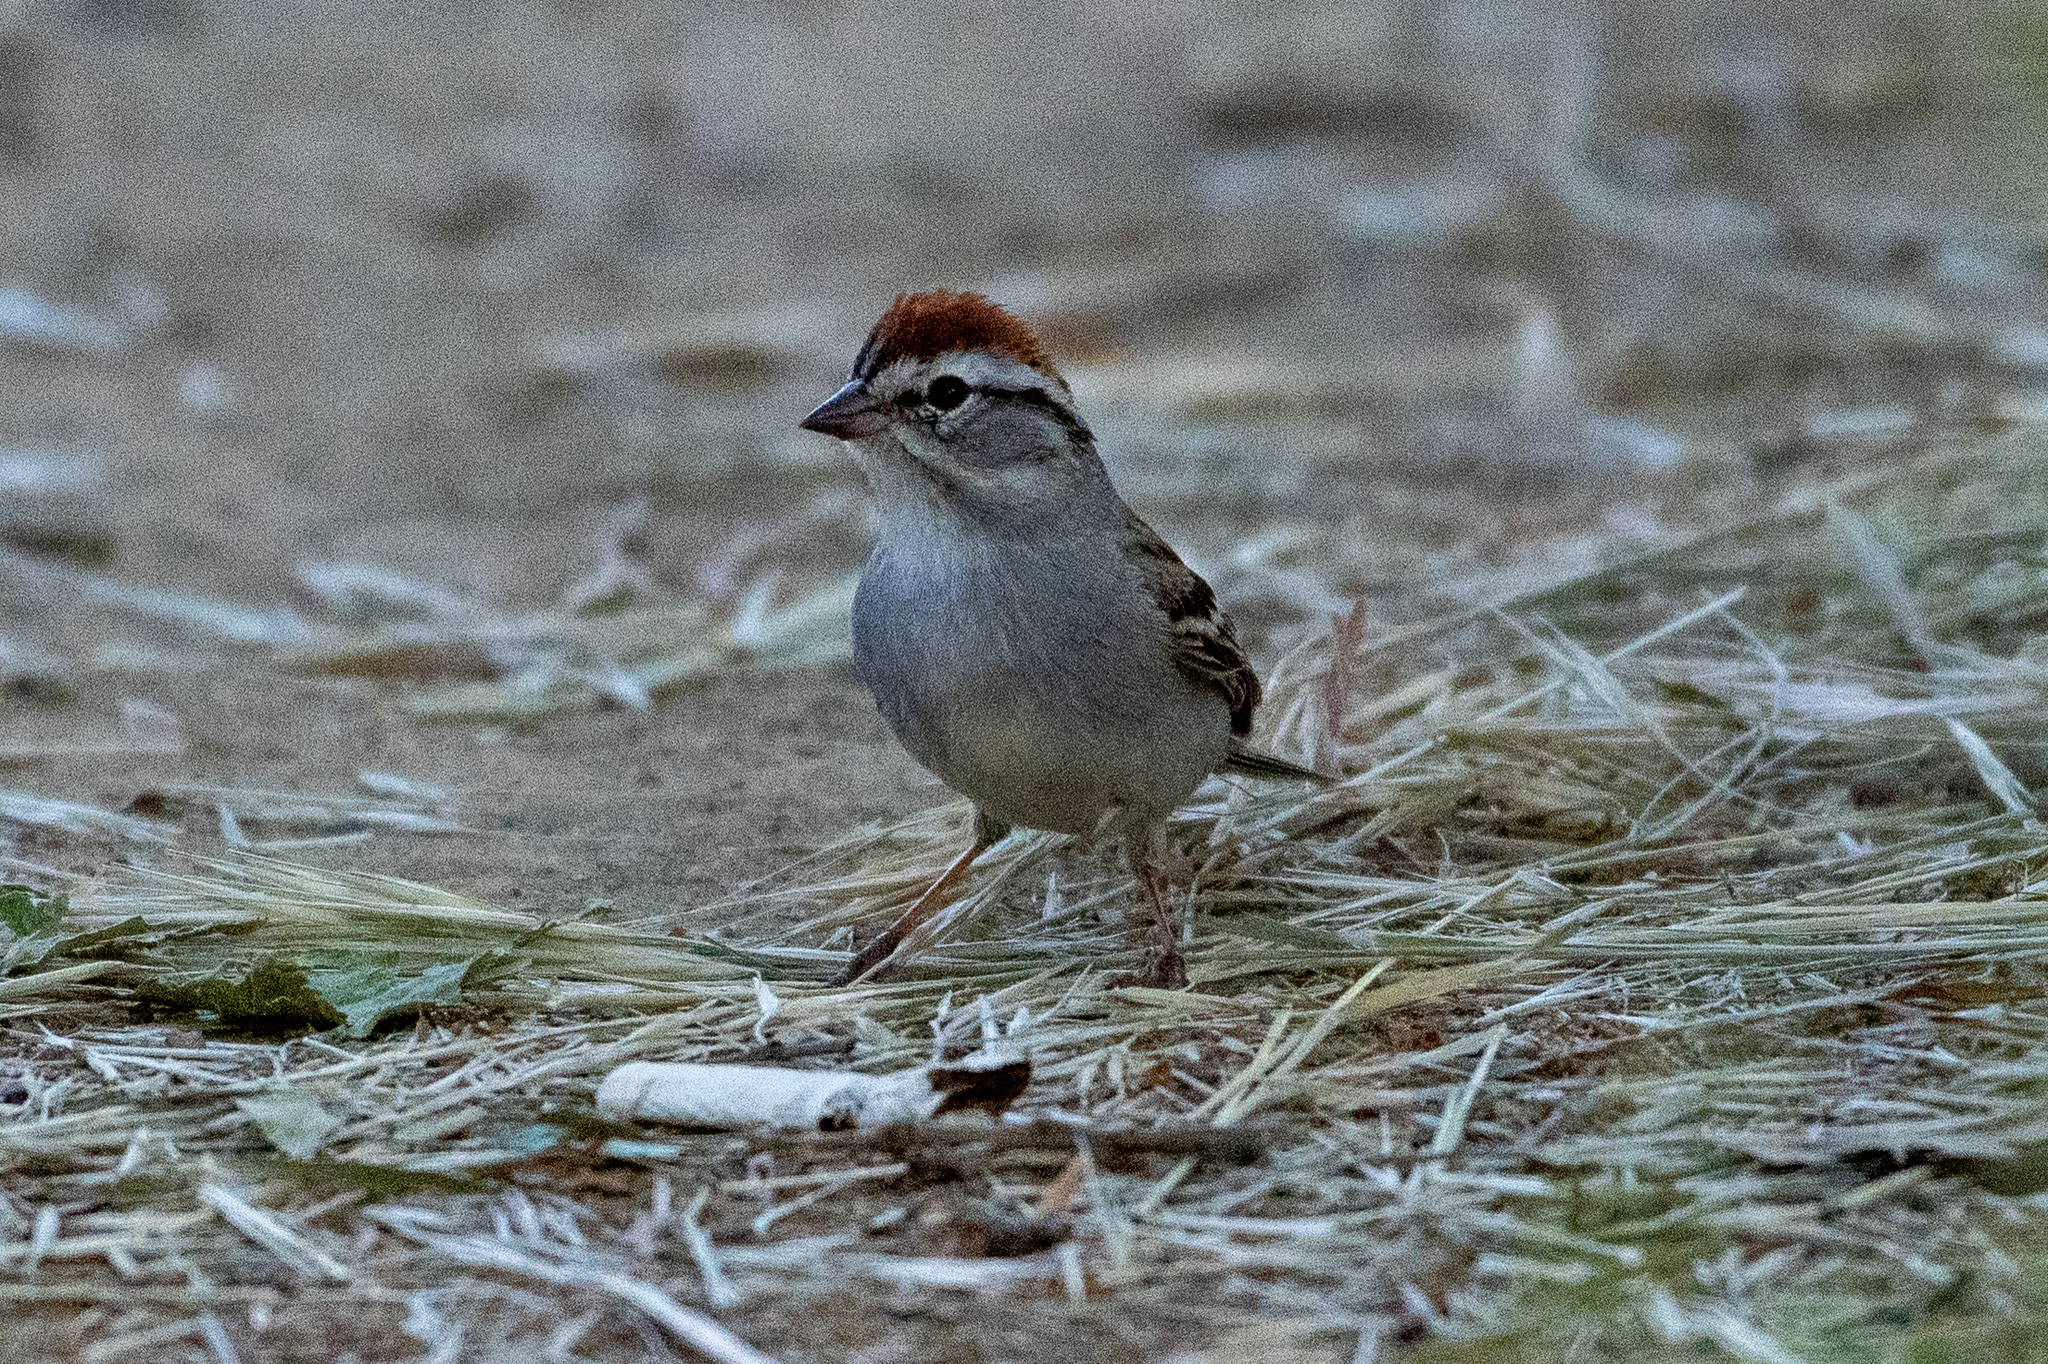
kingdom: Animalia
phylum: Chordata
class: Aves
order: Passeriformes
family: Passerellidae
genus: Spizella
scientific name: Spizella passerina
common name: Chipping sparrow
